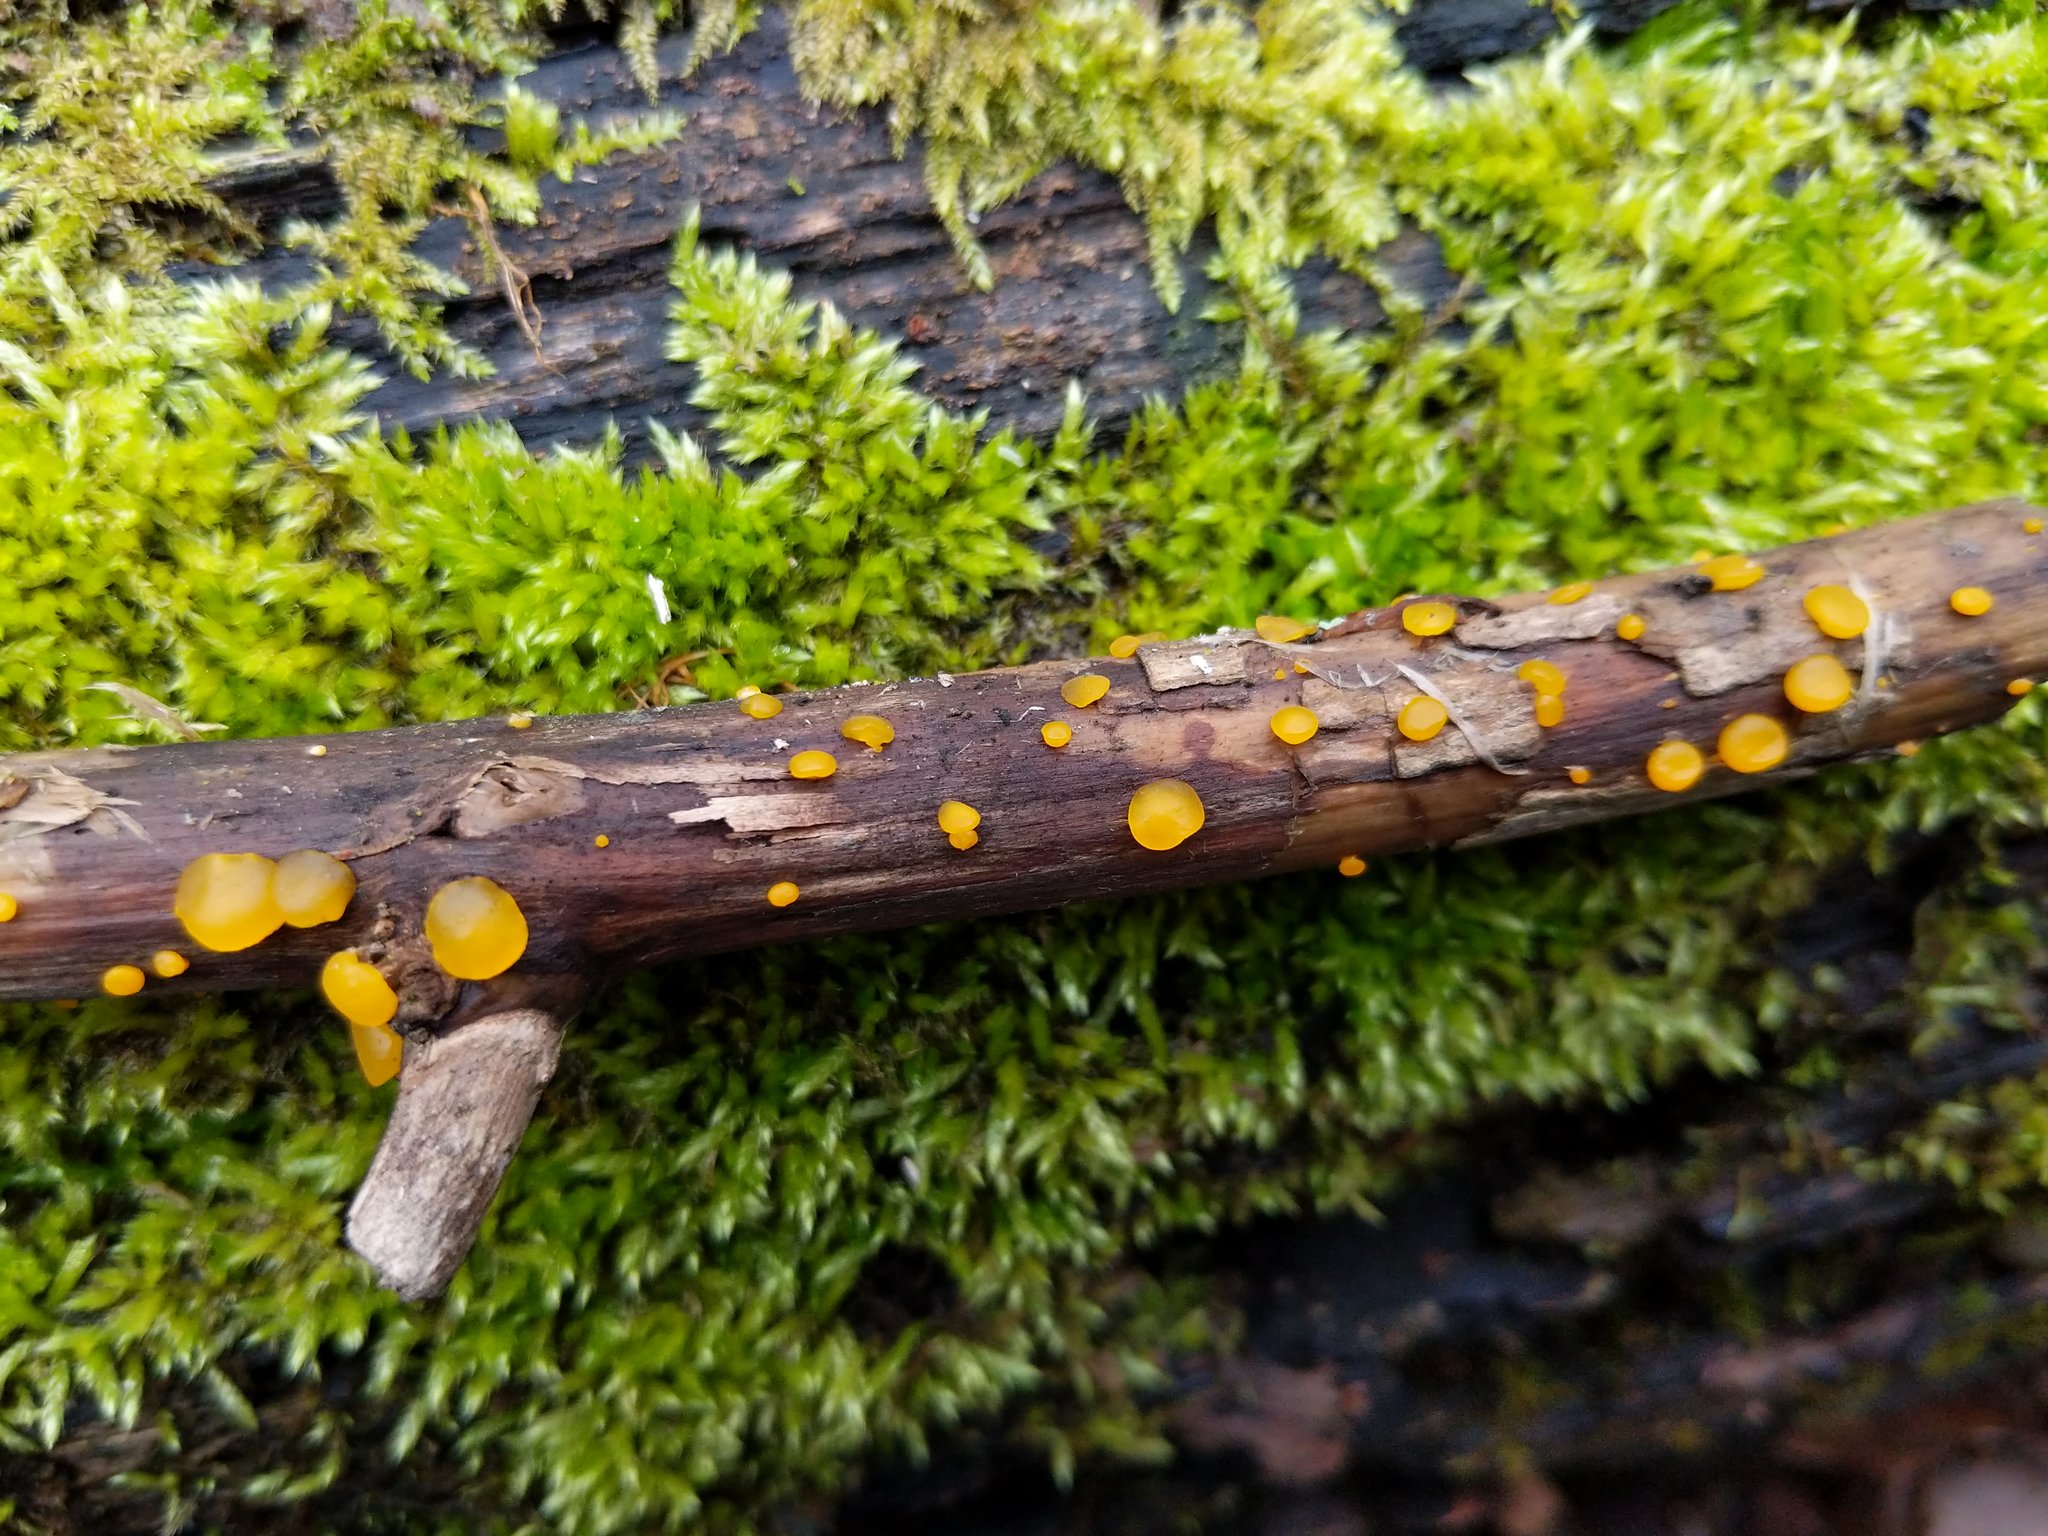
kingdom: Fungi
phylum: Basidiomycota
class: Dacrymycetes
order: Dacrymycetales
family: Dacrymycetaceae
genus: Dacrymyces
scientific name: Dacrymyces capitatus
